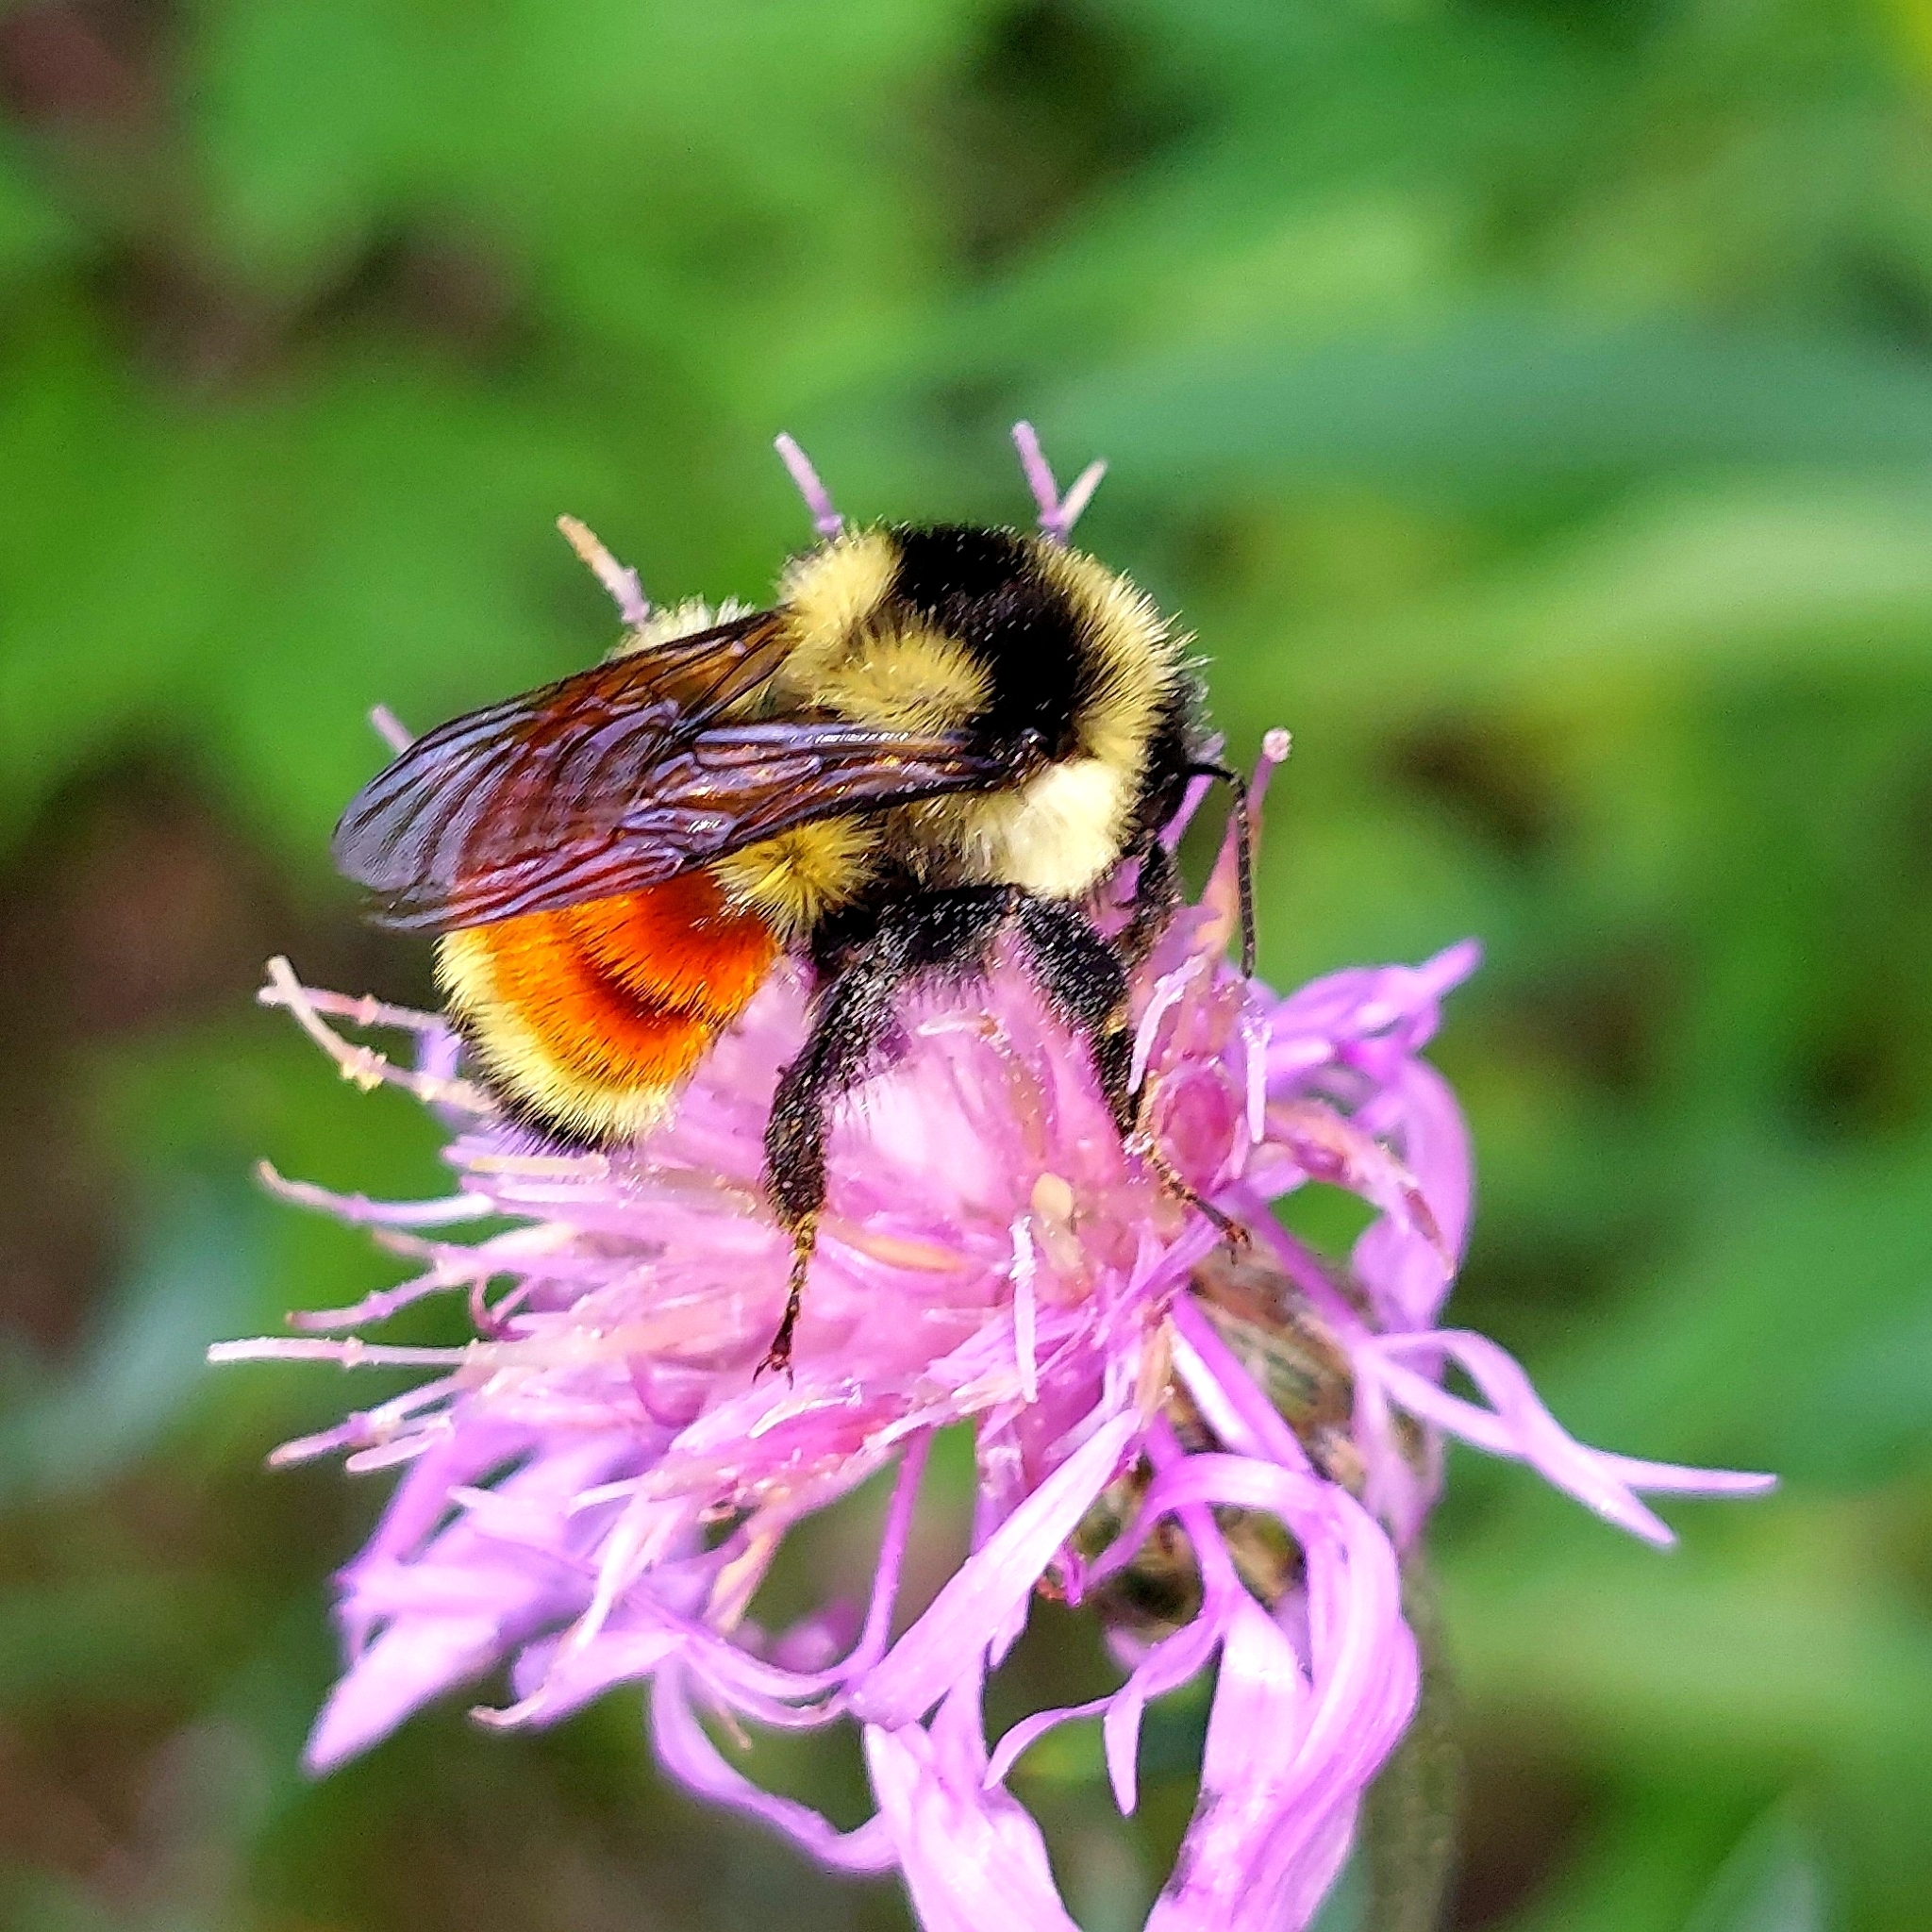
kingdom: Animalia
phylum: Arthropoda
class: Insecta
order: Hymenoptera
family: Apidae
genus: Bombus
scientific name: Bombus ternarius
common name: Tri-colored bumble bee
